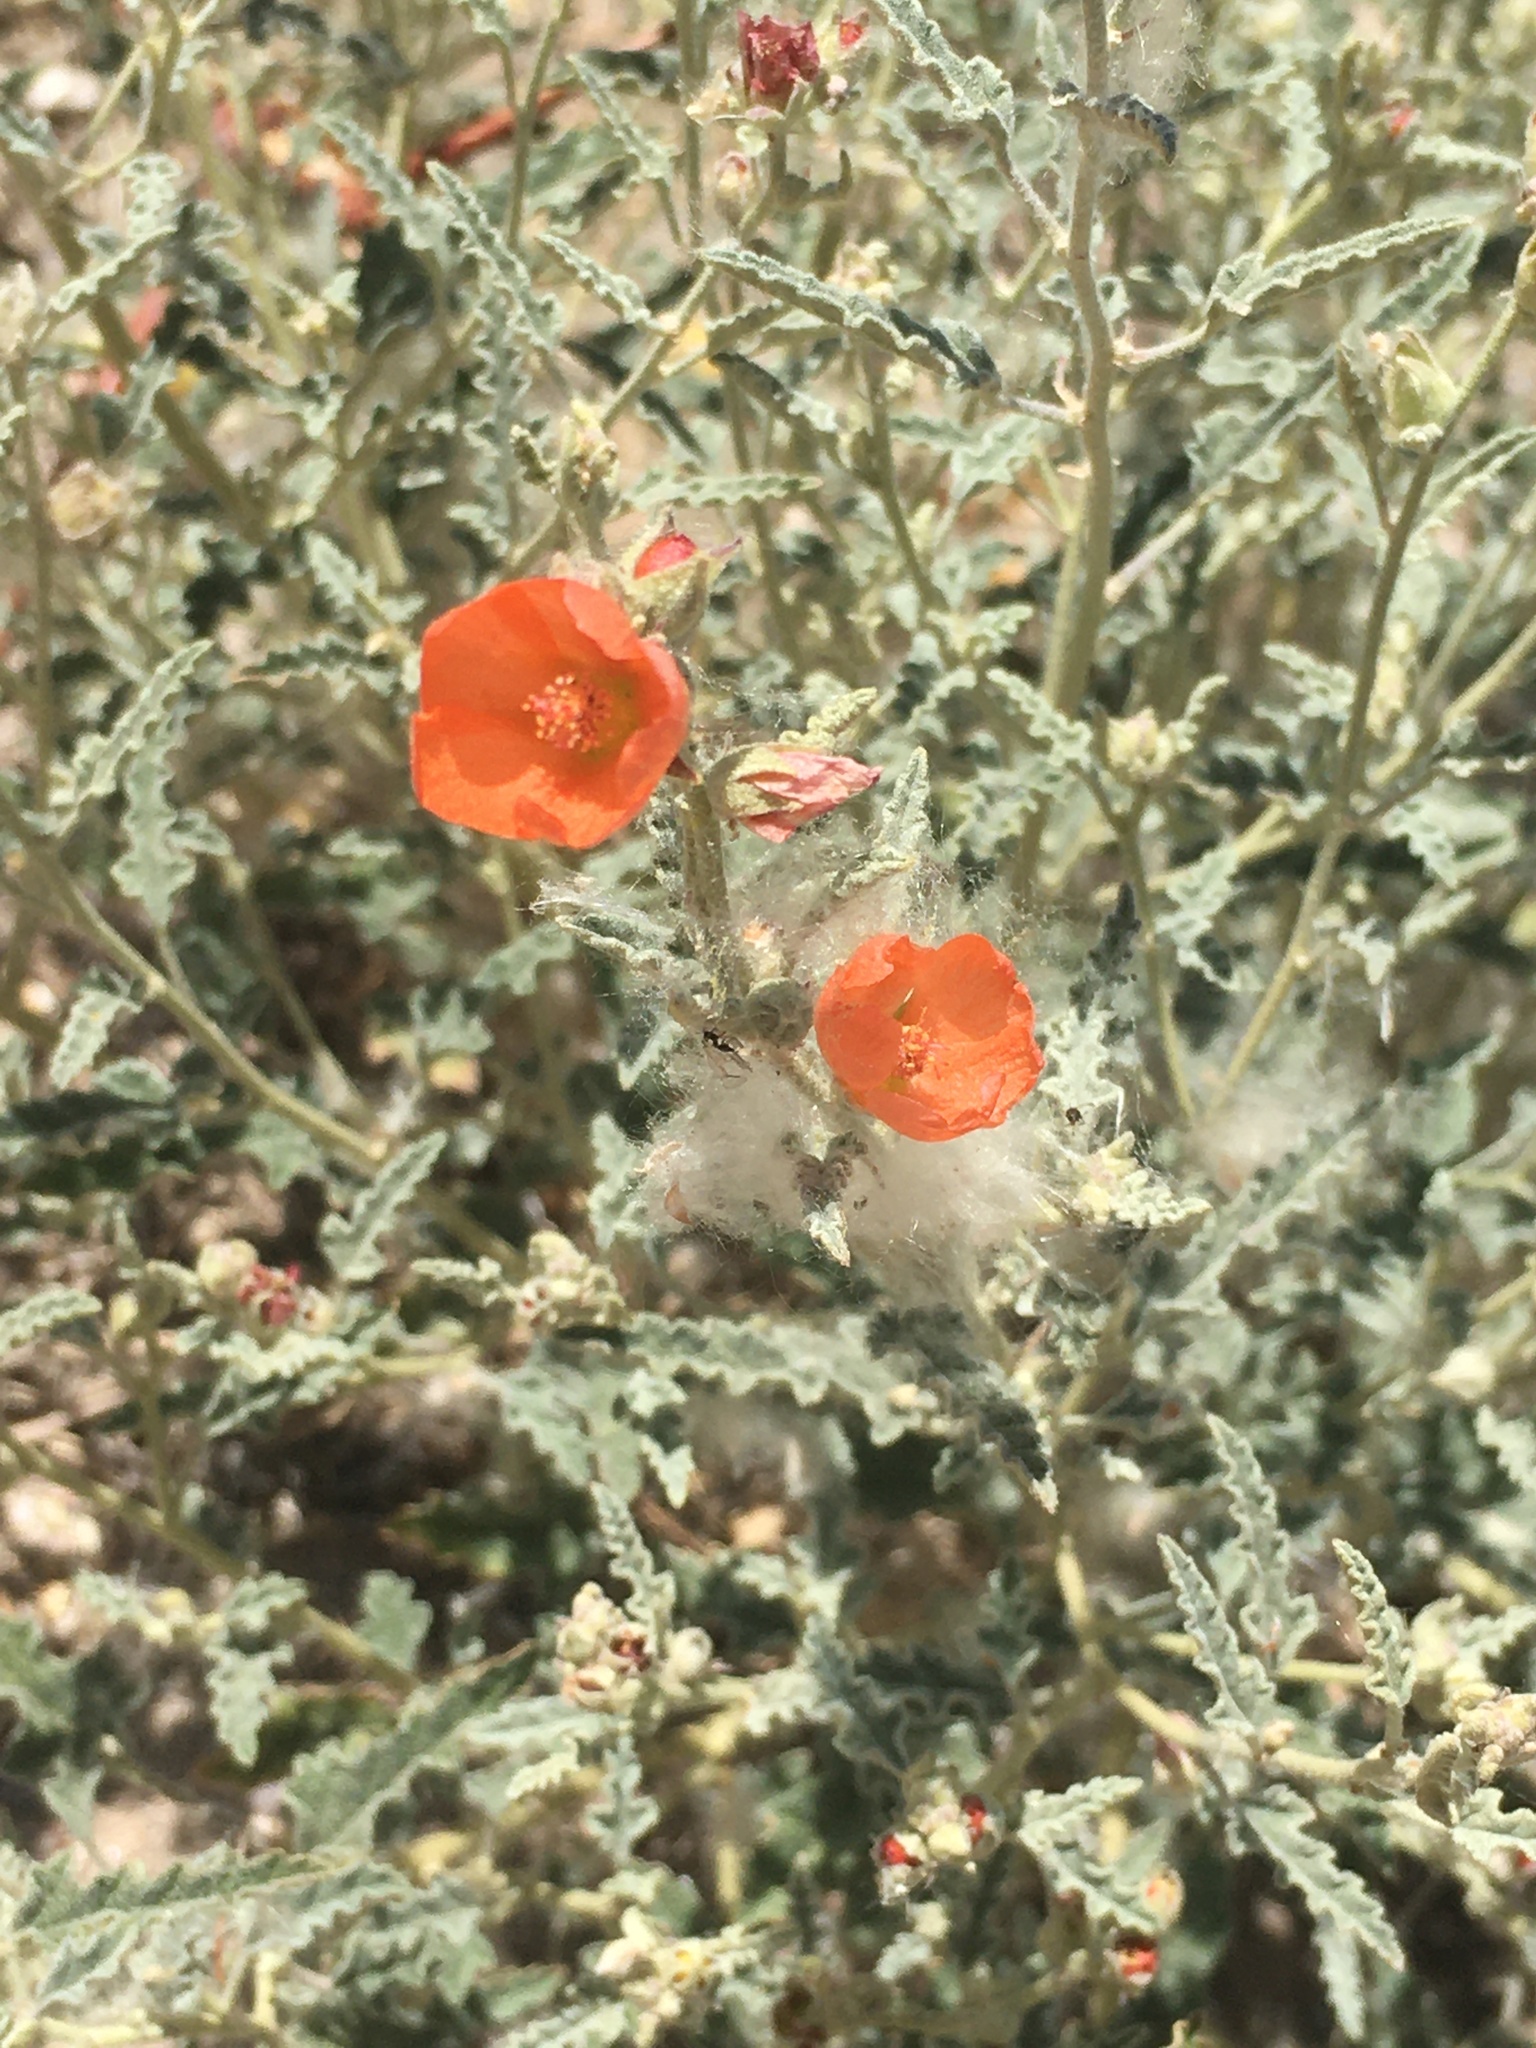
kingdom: Plantae
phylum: Tracheophyta
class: Magnoliopsida
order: Malvales
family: Malvaceae
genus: Sphaeralcea
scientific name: Sphaeralcea hastulata
